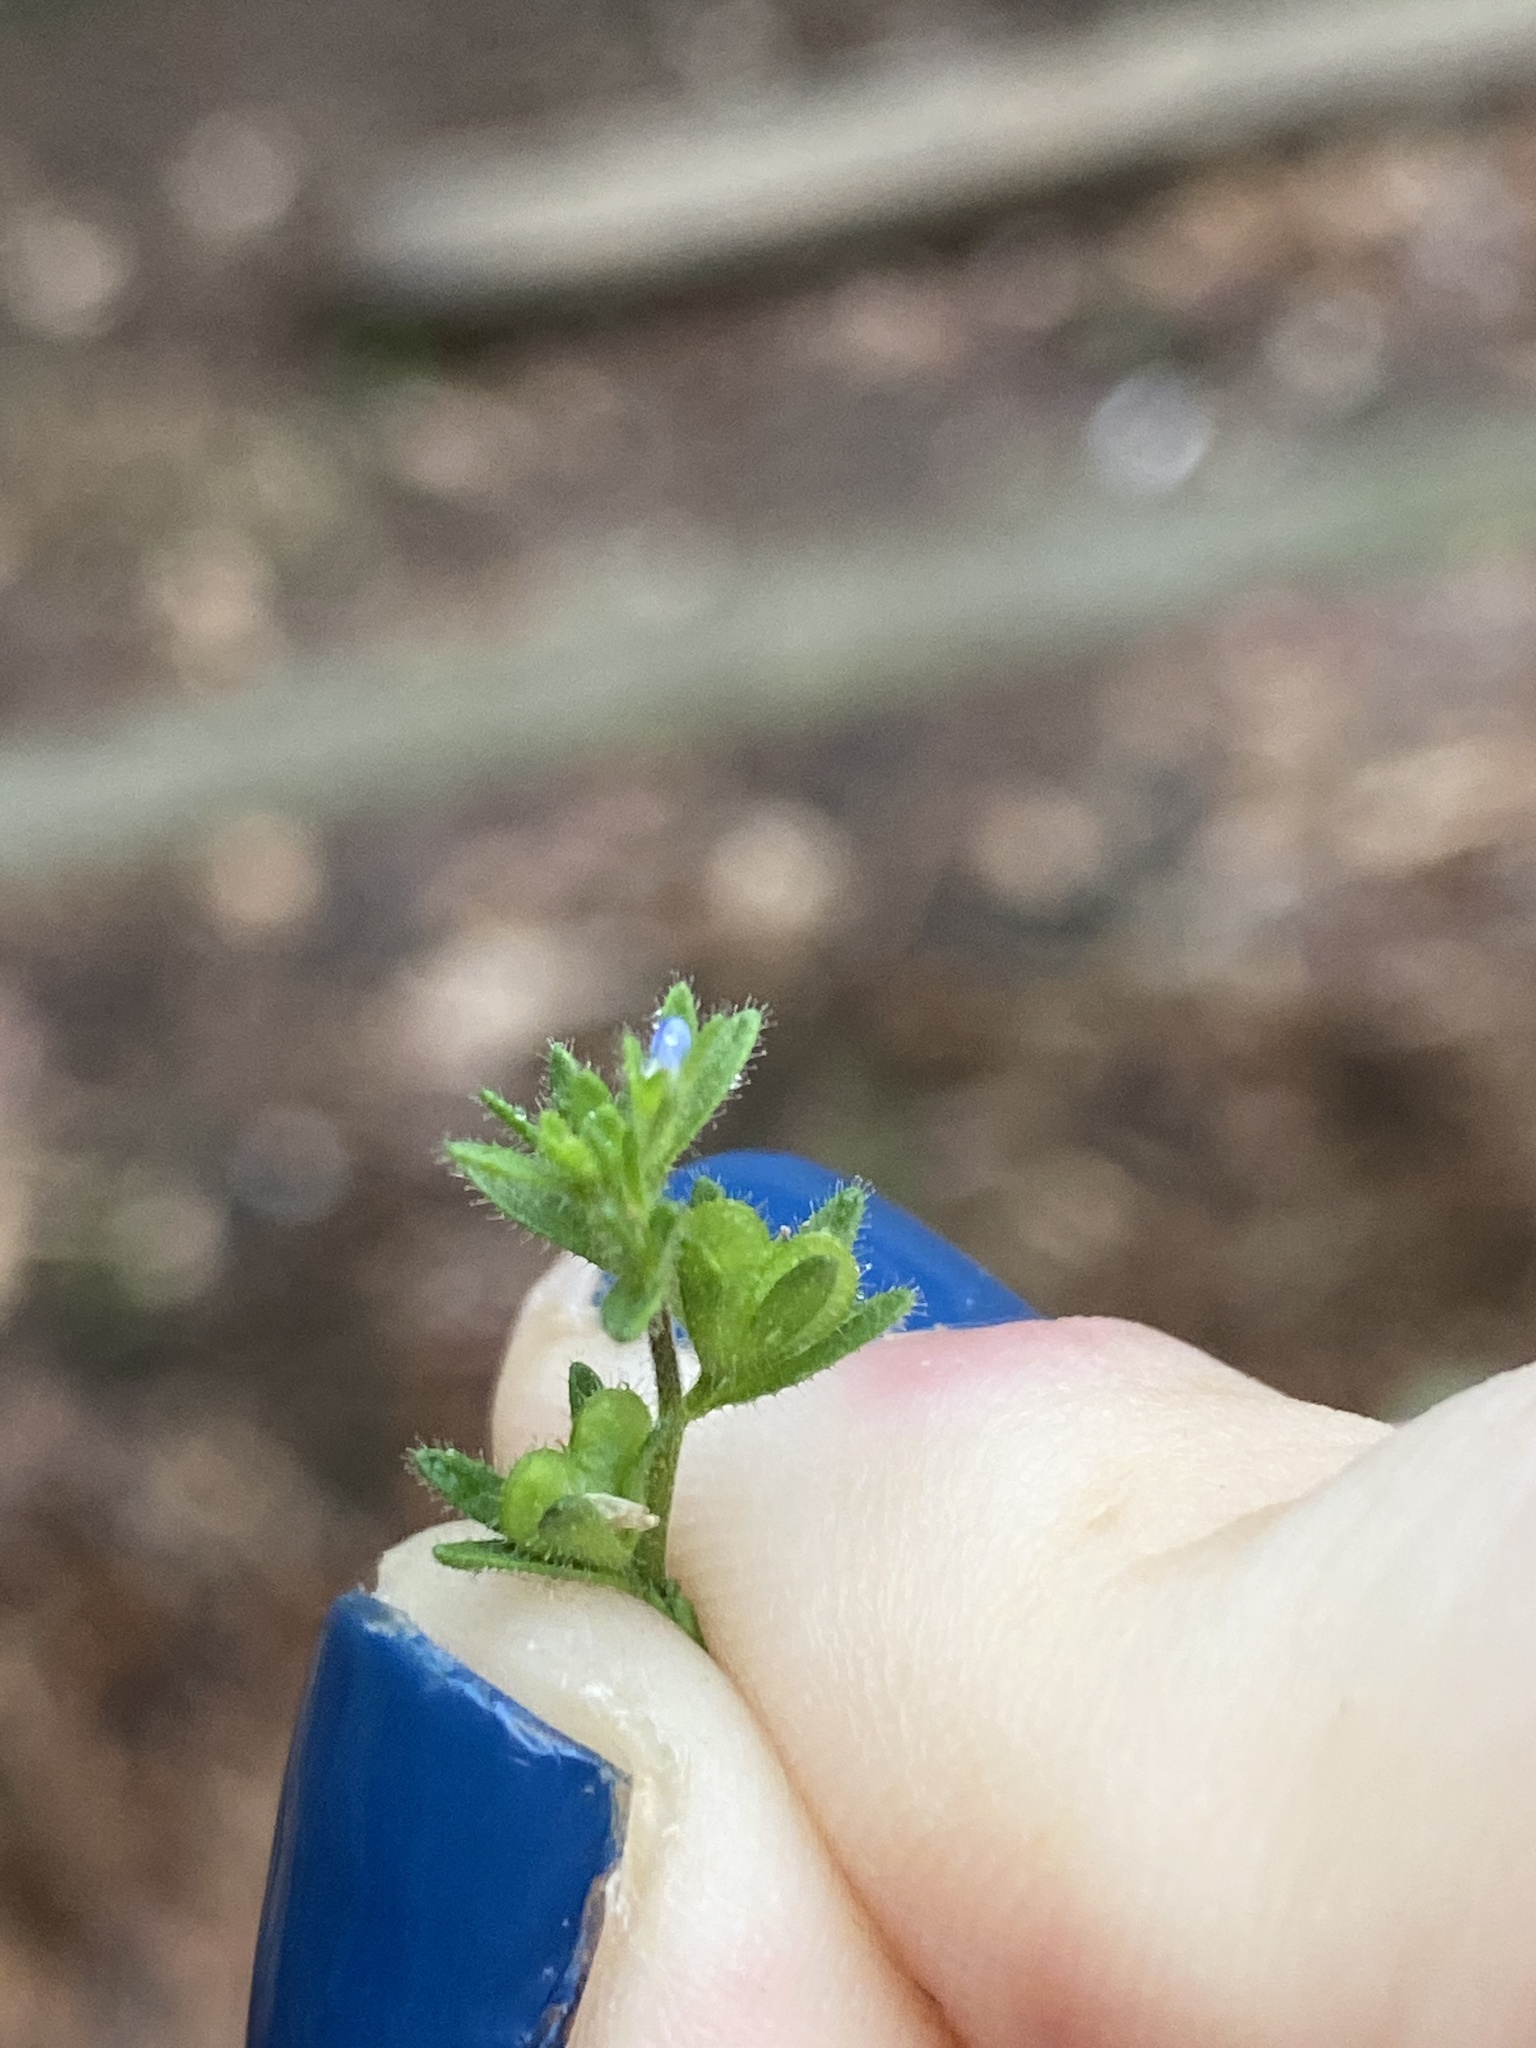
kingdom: Plantae
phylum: Tracheophyta
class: Magnoliopsida
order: Lamiales
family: Plantaginaceae
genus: Veronica
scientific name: Veronica arvensis
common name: Corn speedwell
